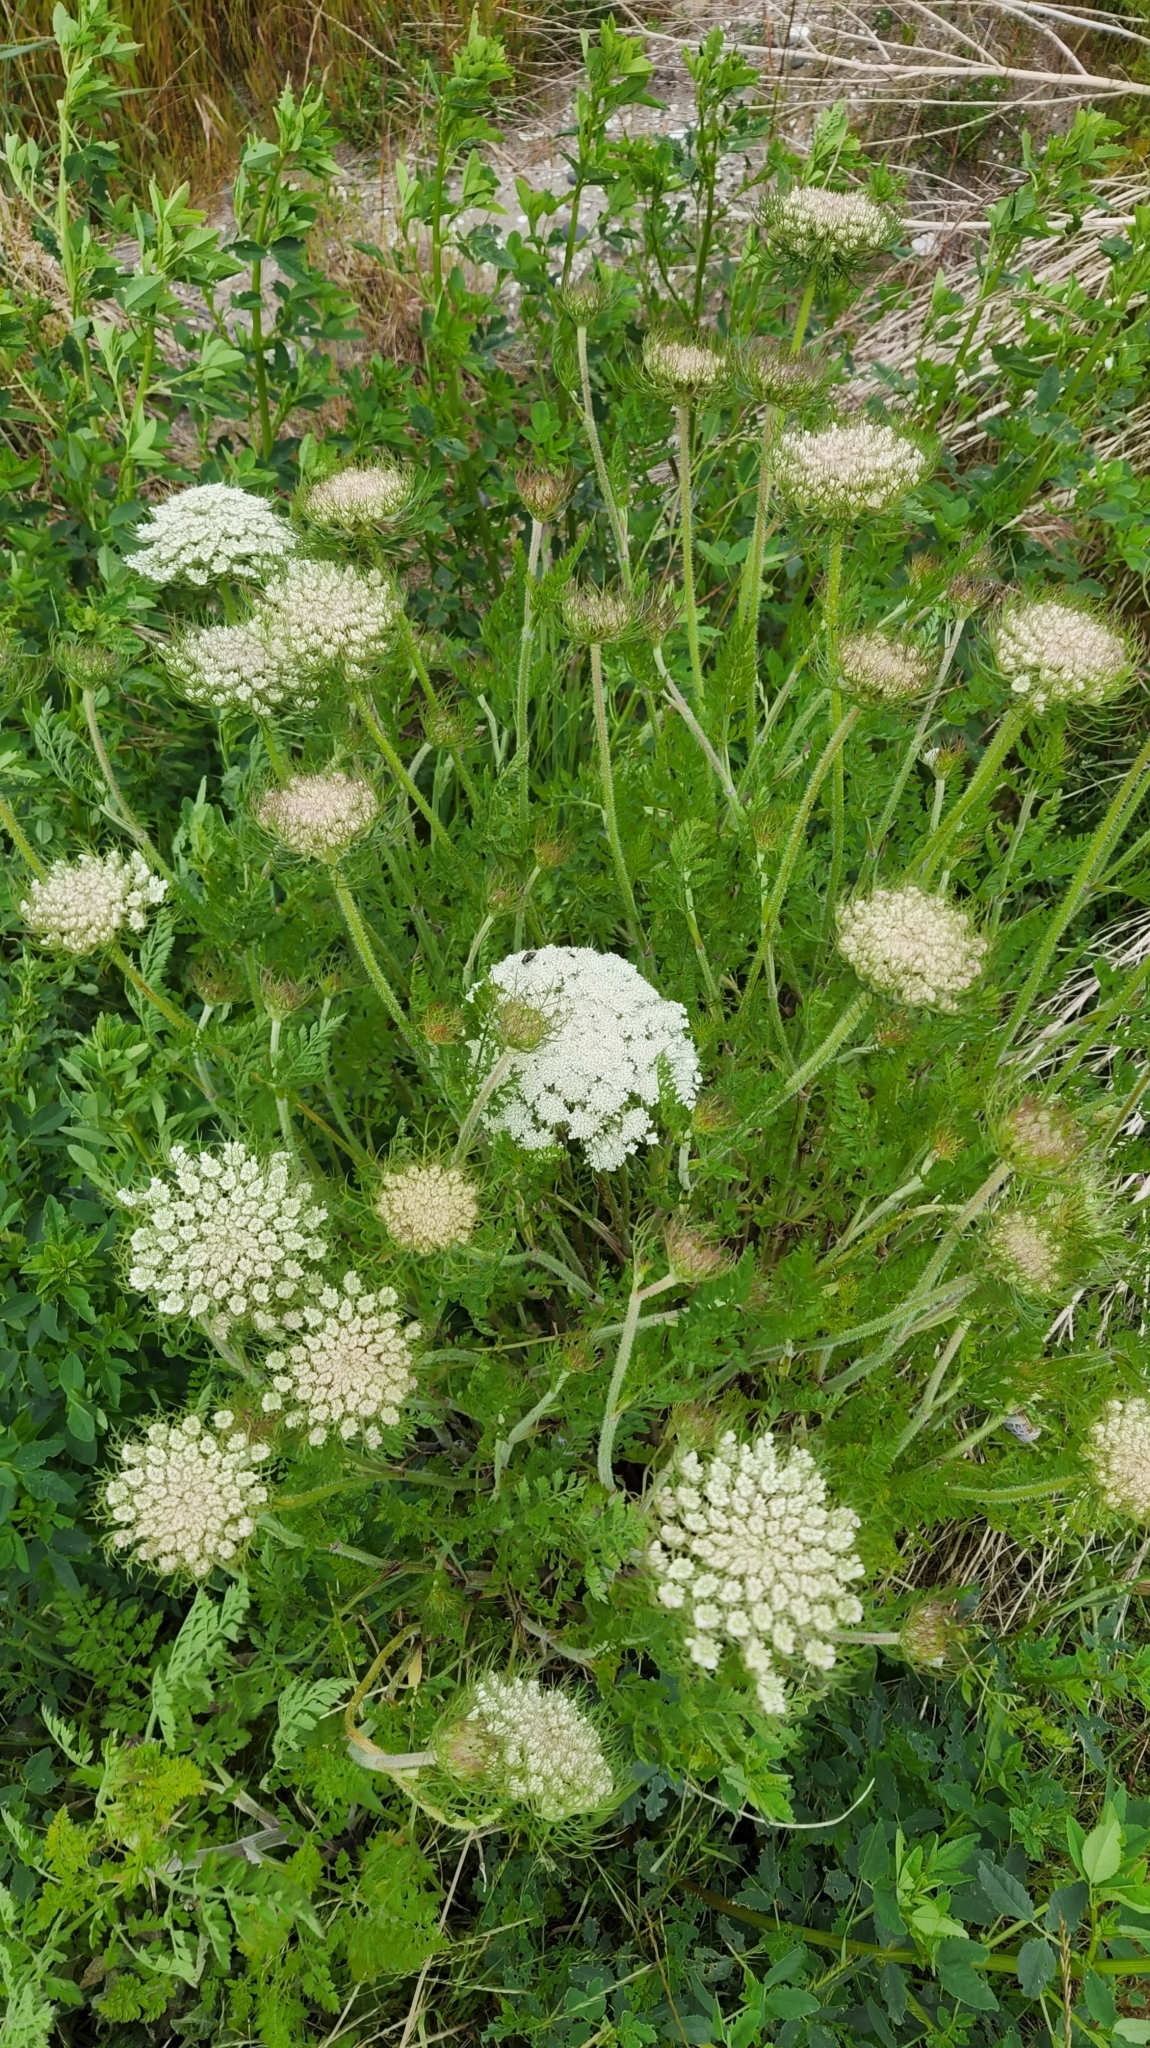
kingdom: Plantae
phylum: Tracheophyta
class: Magnoliopsida
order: Apiales
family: Apiaceae
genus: Daucus
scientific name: Daucus carota
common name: Wild carrot
